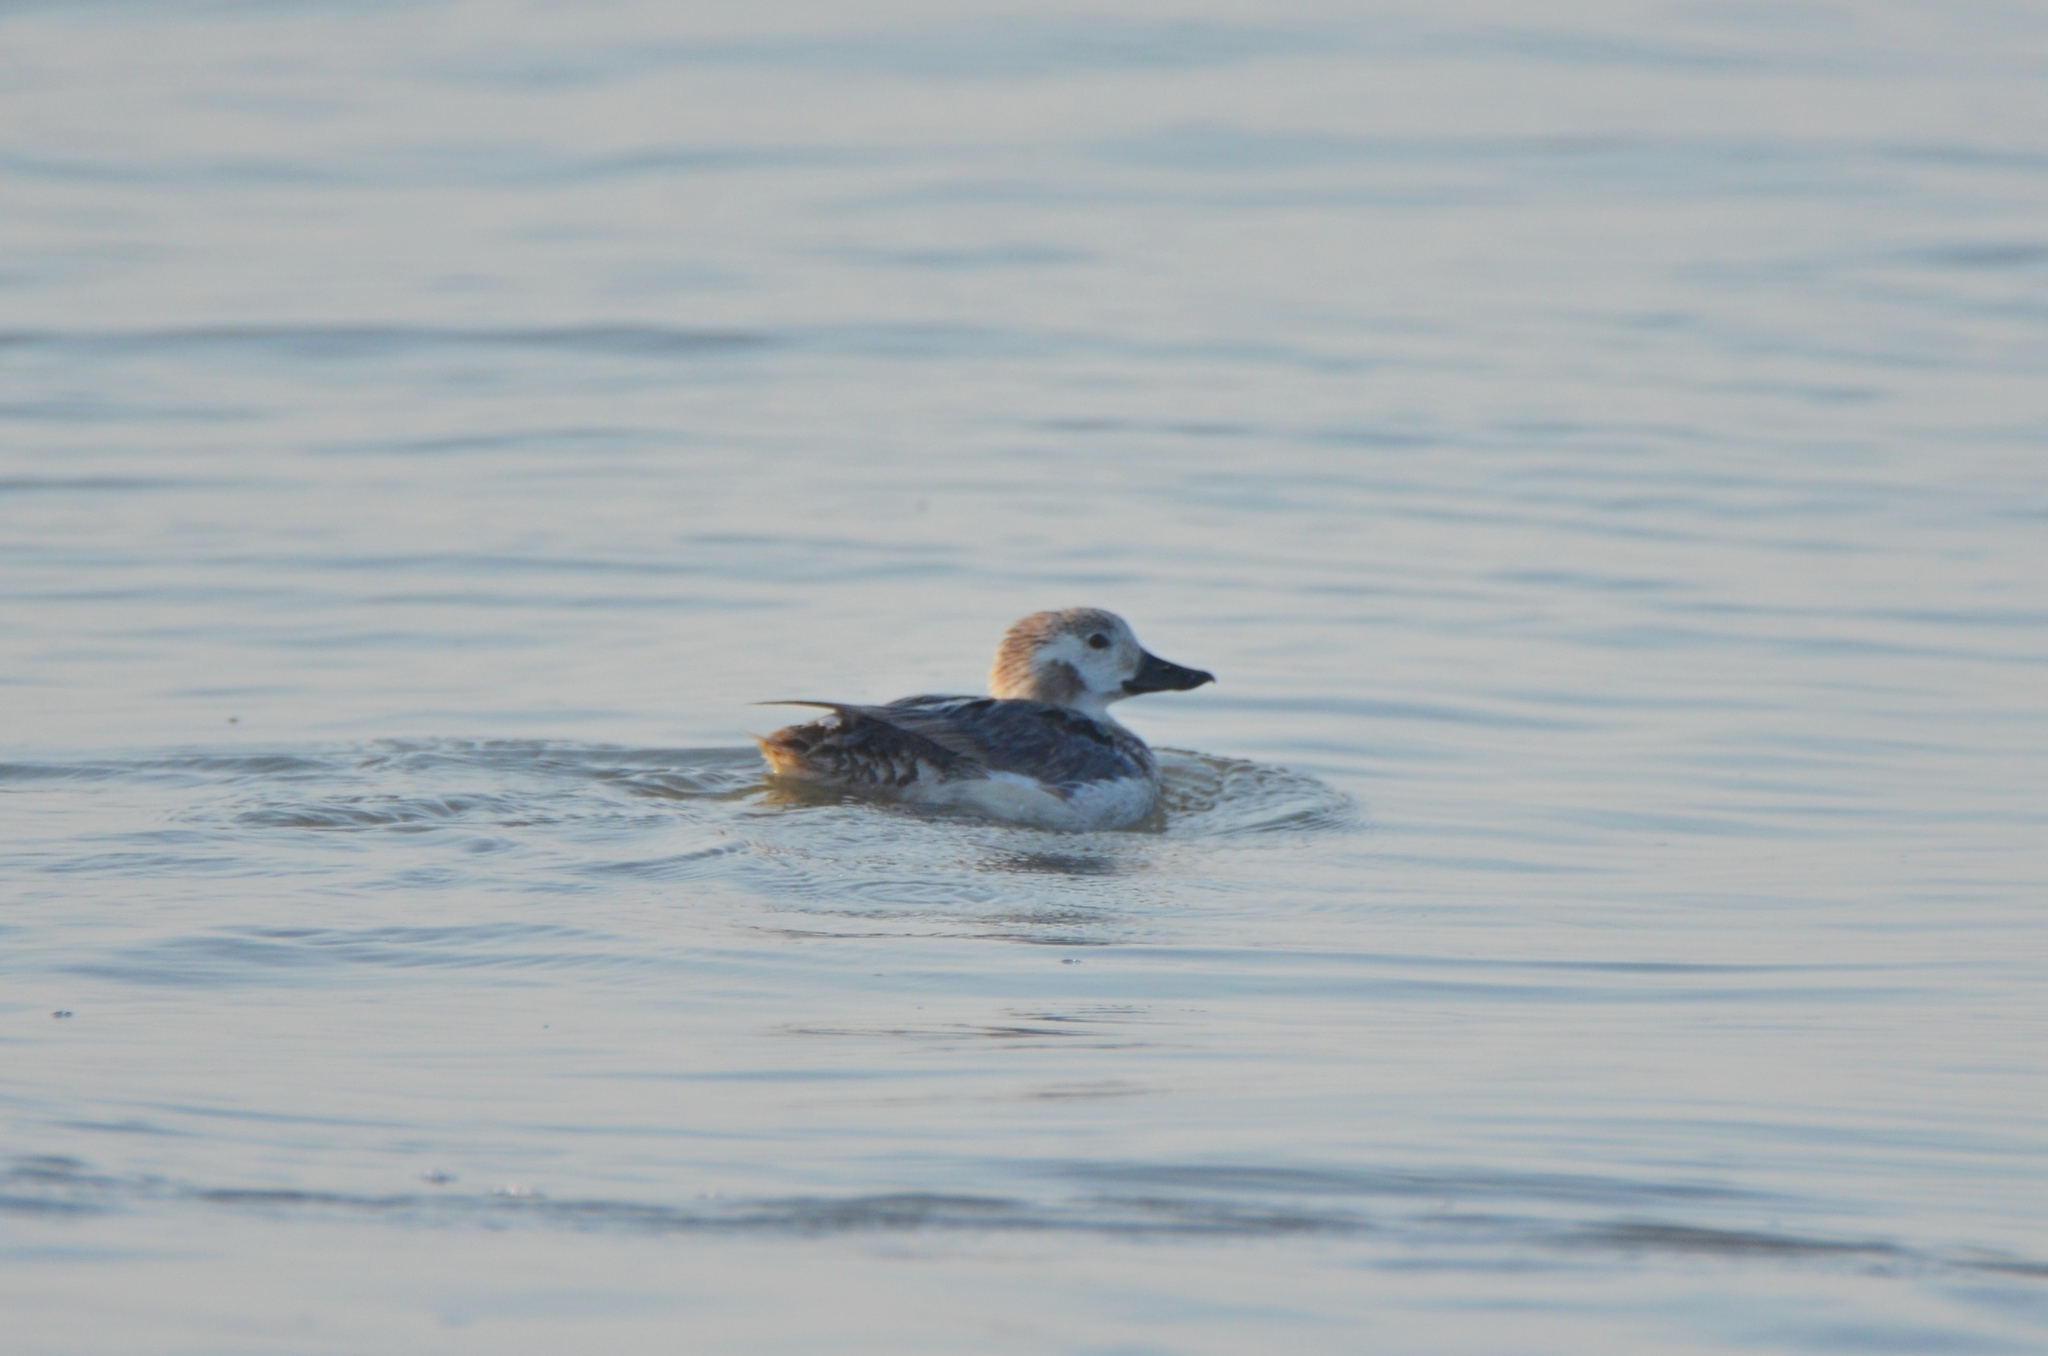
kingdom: Animalia
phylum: Chordata
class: Aves
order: Anseriformes
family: Anatidae
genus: Clangula
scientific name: Clangula hyemalis
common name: Long-tailed duck
